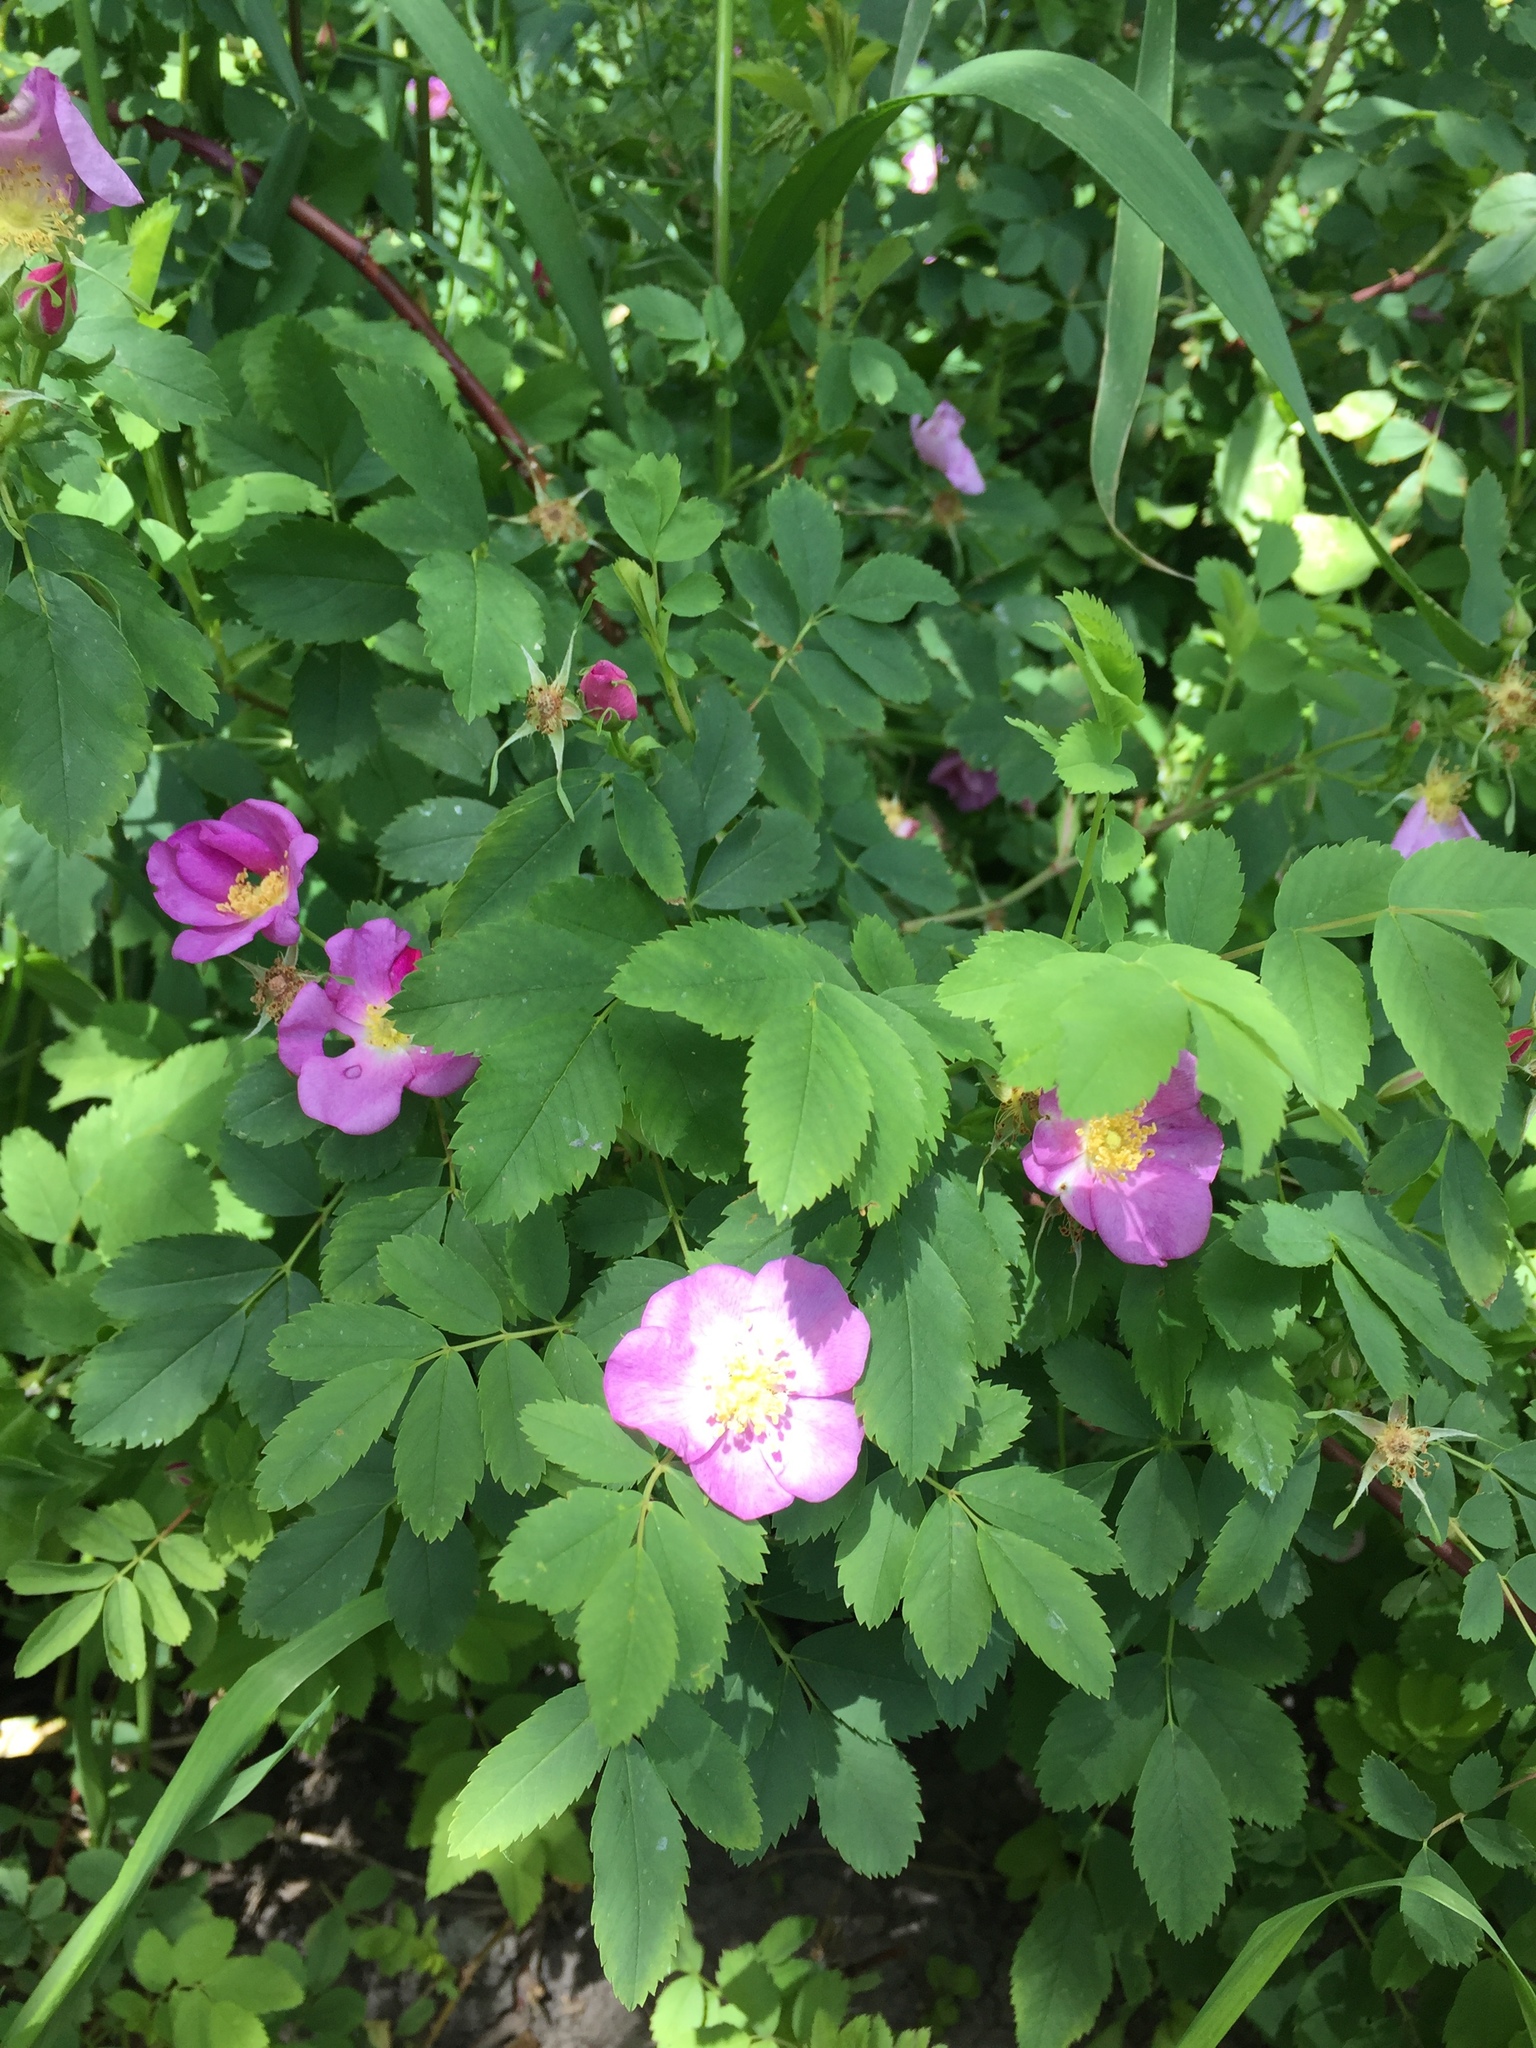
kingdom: Plantae
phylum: Tracheophyta
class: Magnoliopsida
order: Rosales
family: Rosaceae
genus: Rosa
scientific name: Rosa woodsii
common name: Woods's rose
